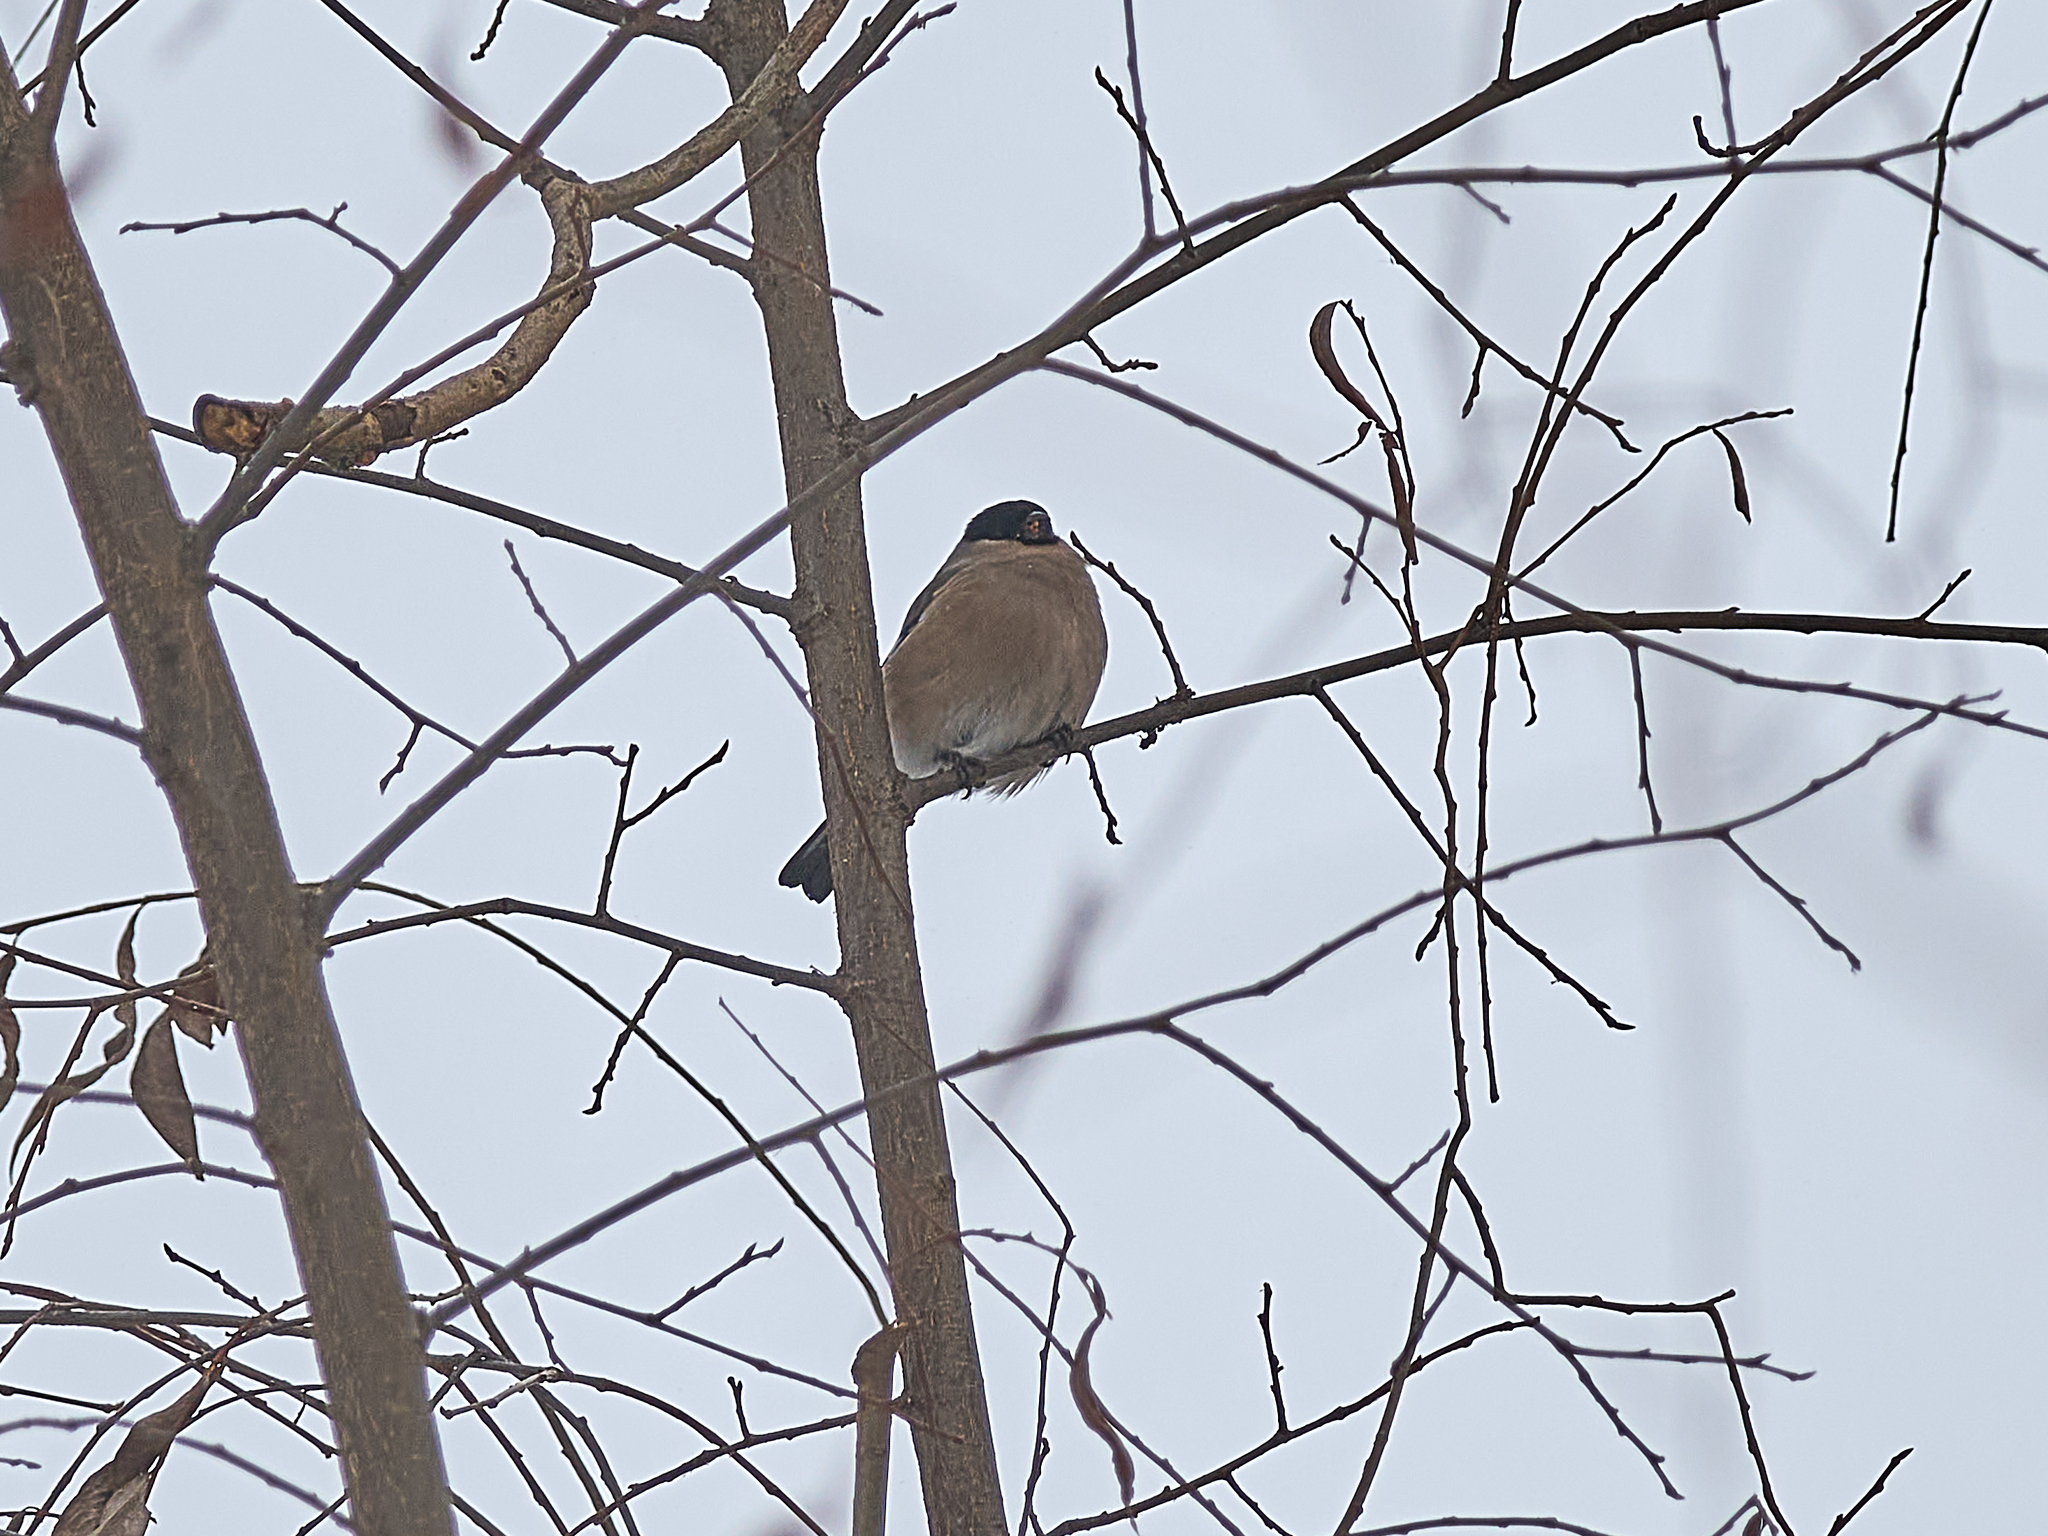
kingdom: Animalia
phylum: Chordata
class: Aves
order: Passeriformes
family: Fringillidae
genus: Pyrrhula
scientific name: Pyrrhula pyrrhula
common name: Eurasian bullfinch
